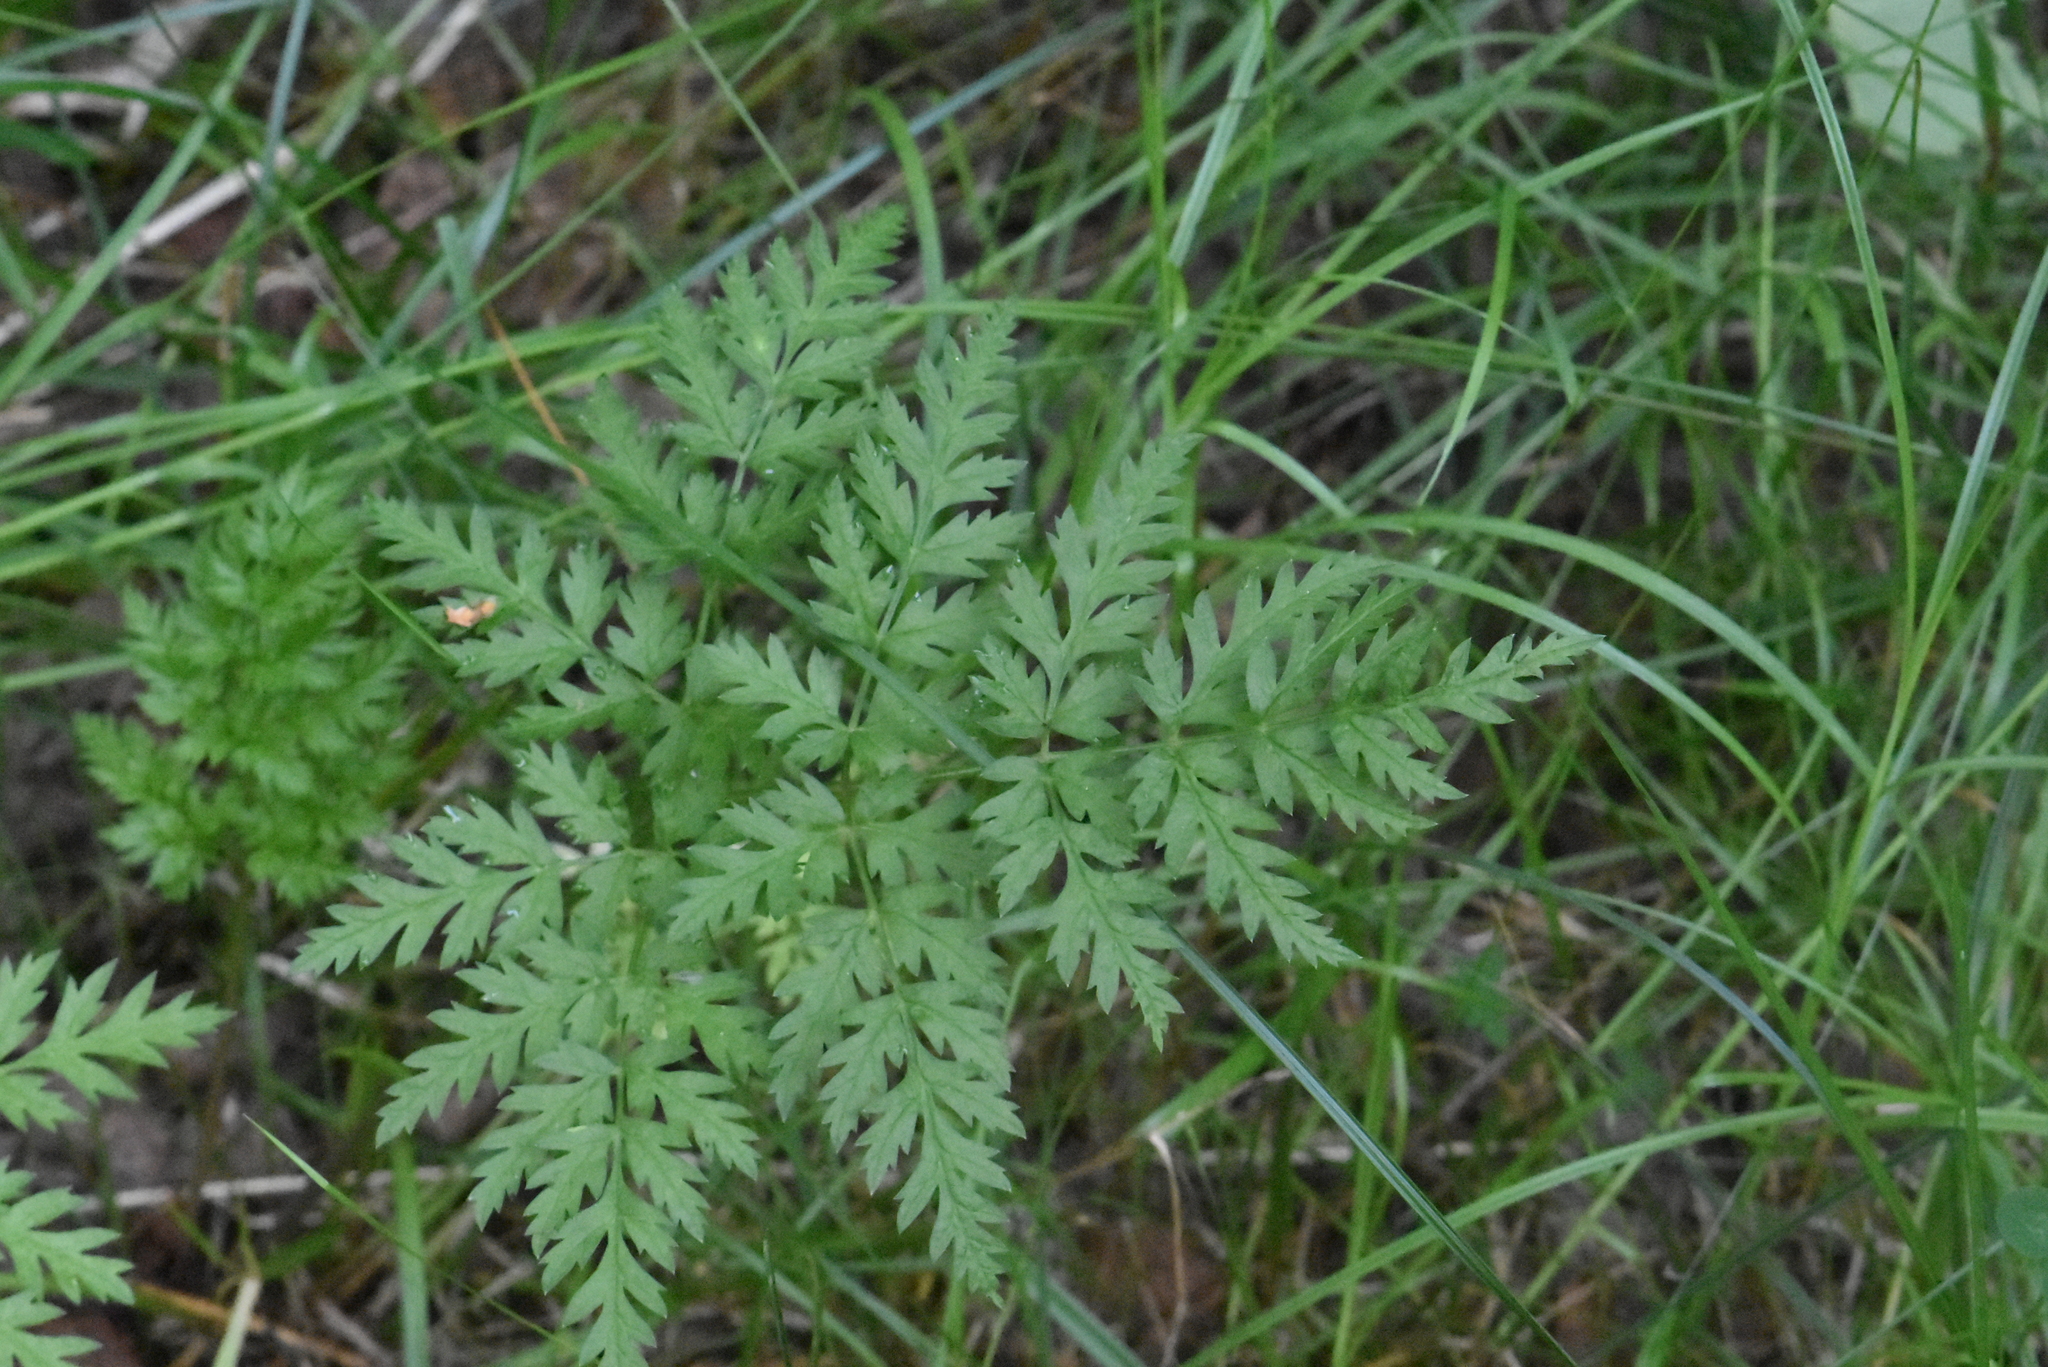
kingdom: Plantae
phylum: Tracheophyta
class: Magnoliopsida
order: Apiales
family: Apiaceae
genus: Anthriscus
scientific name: Anthriscus sylvestris
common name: Cow parsley
